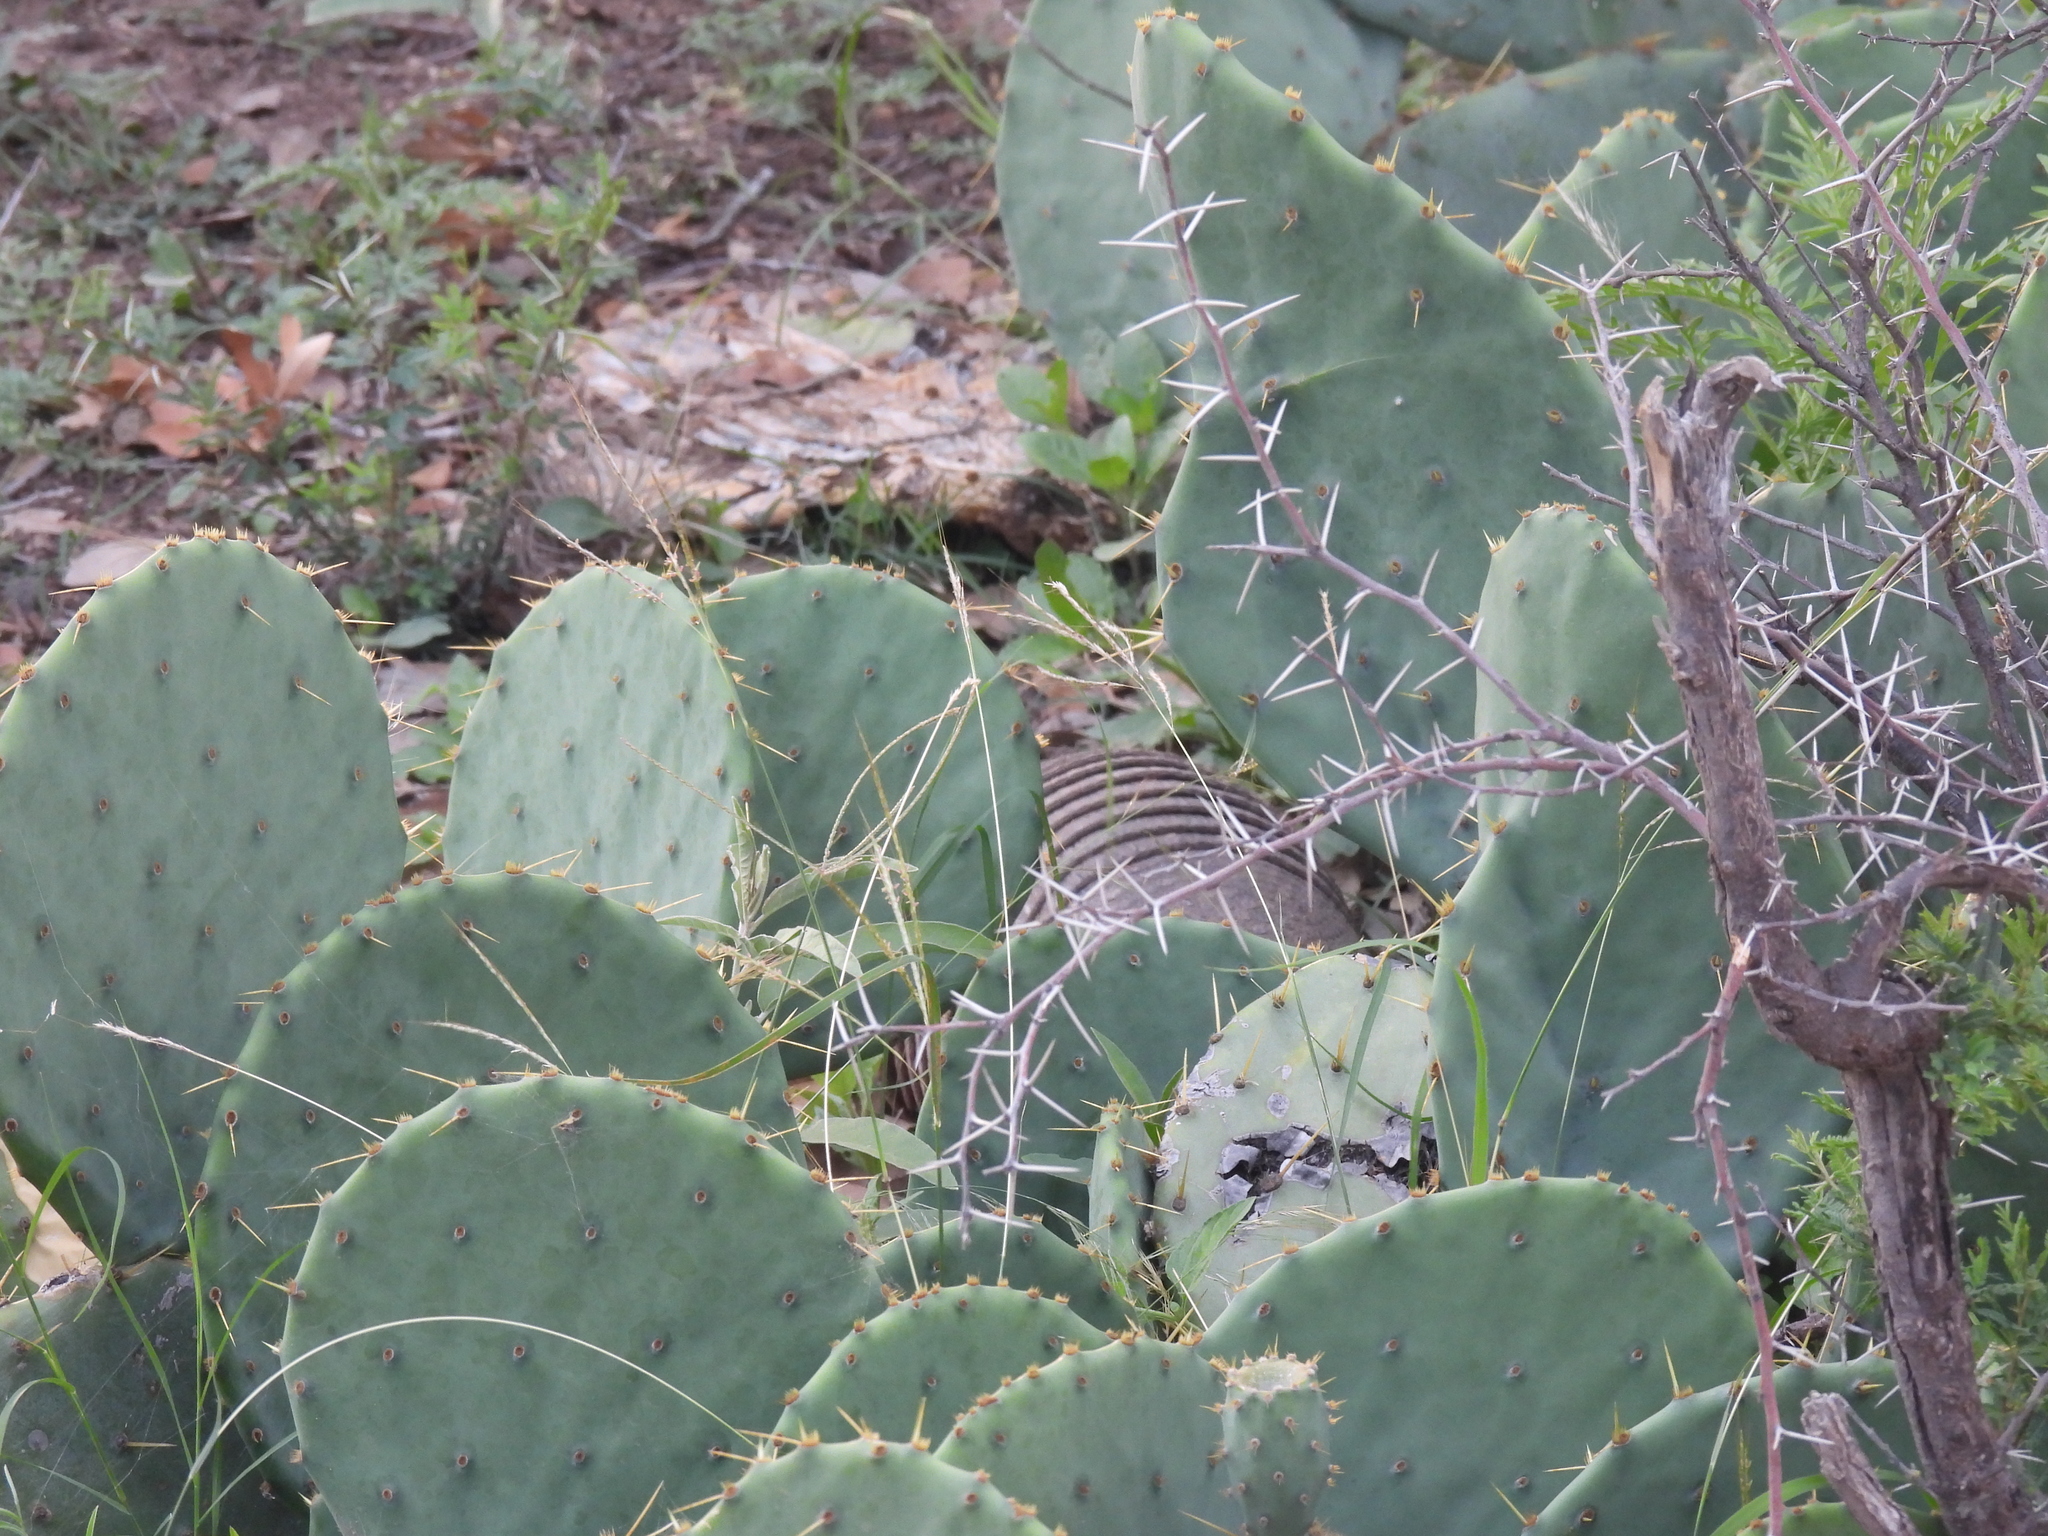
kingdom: Animalia
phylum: Chordata
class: Mammalia
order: Cingulata
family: Dasypodidae
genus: Dasypus
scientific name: Dasypus novemcinctus
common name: Nine-banded armadillo
